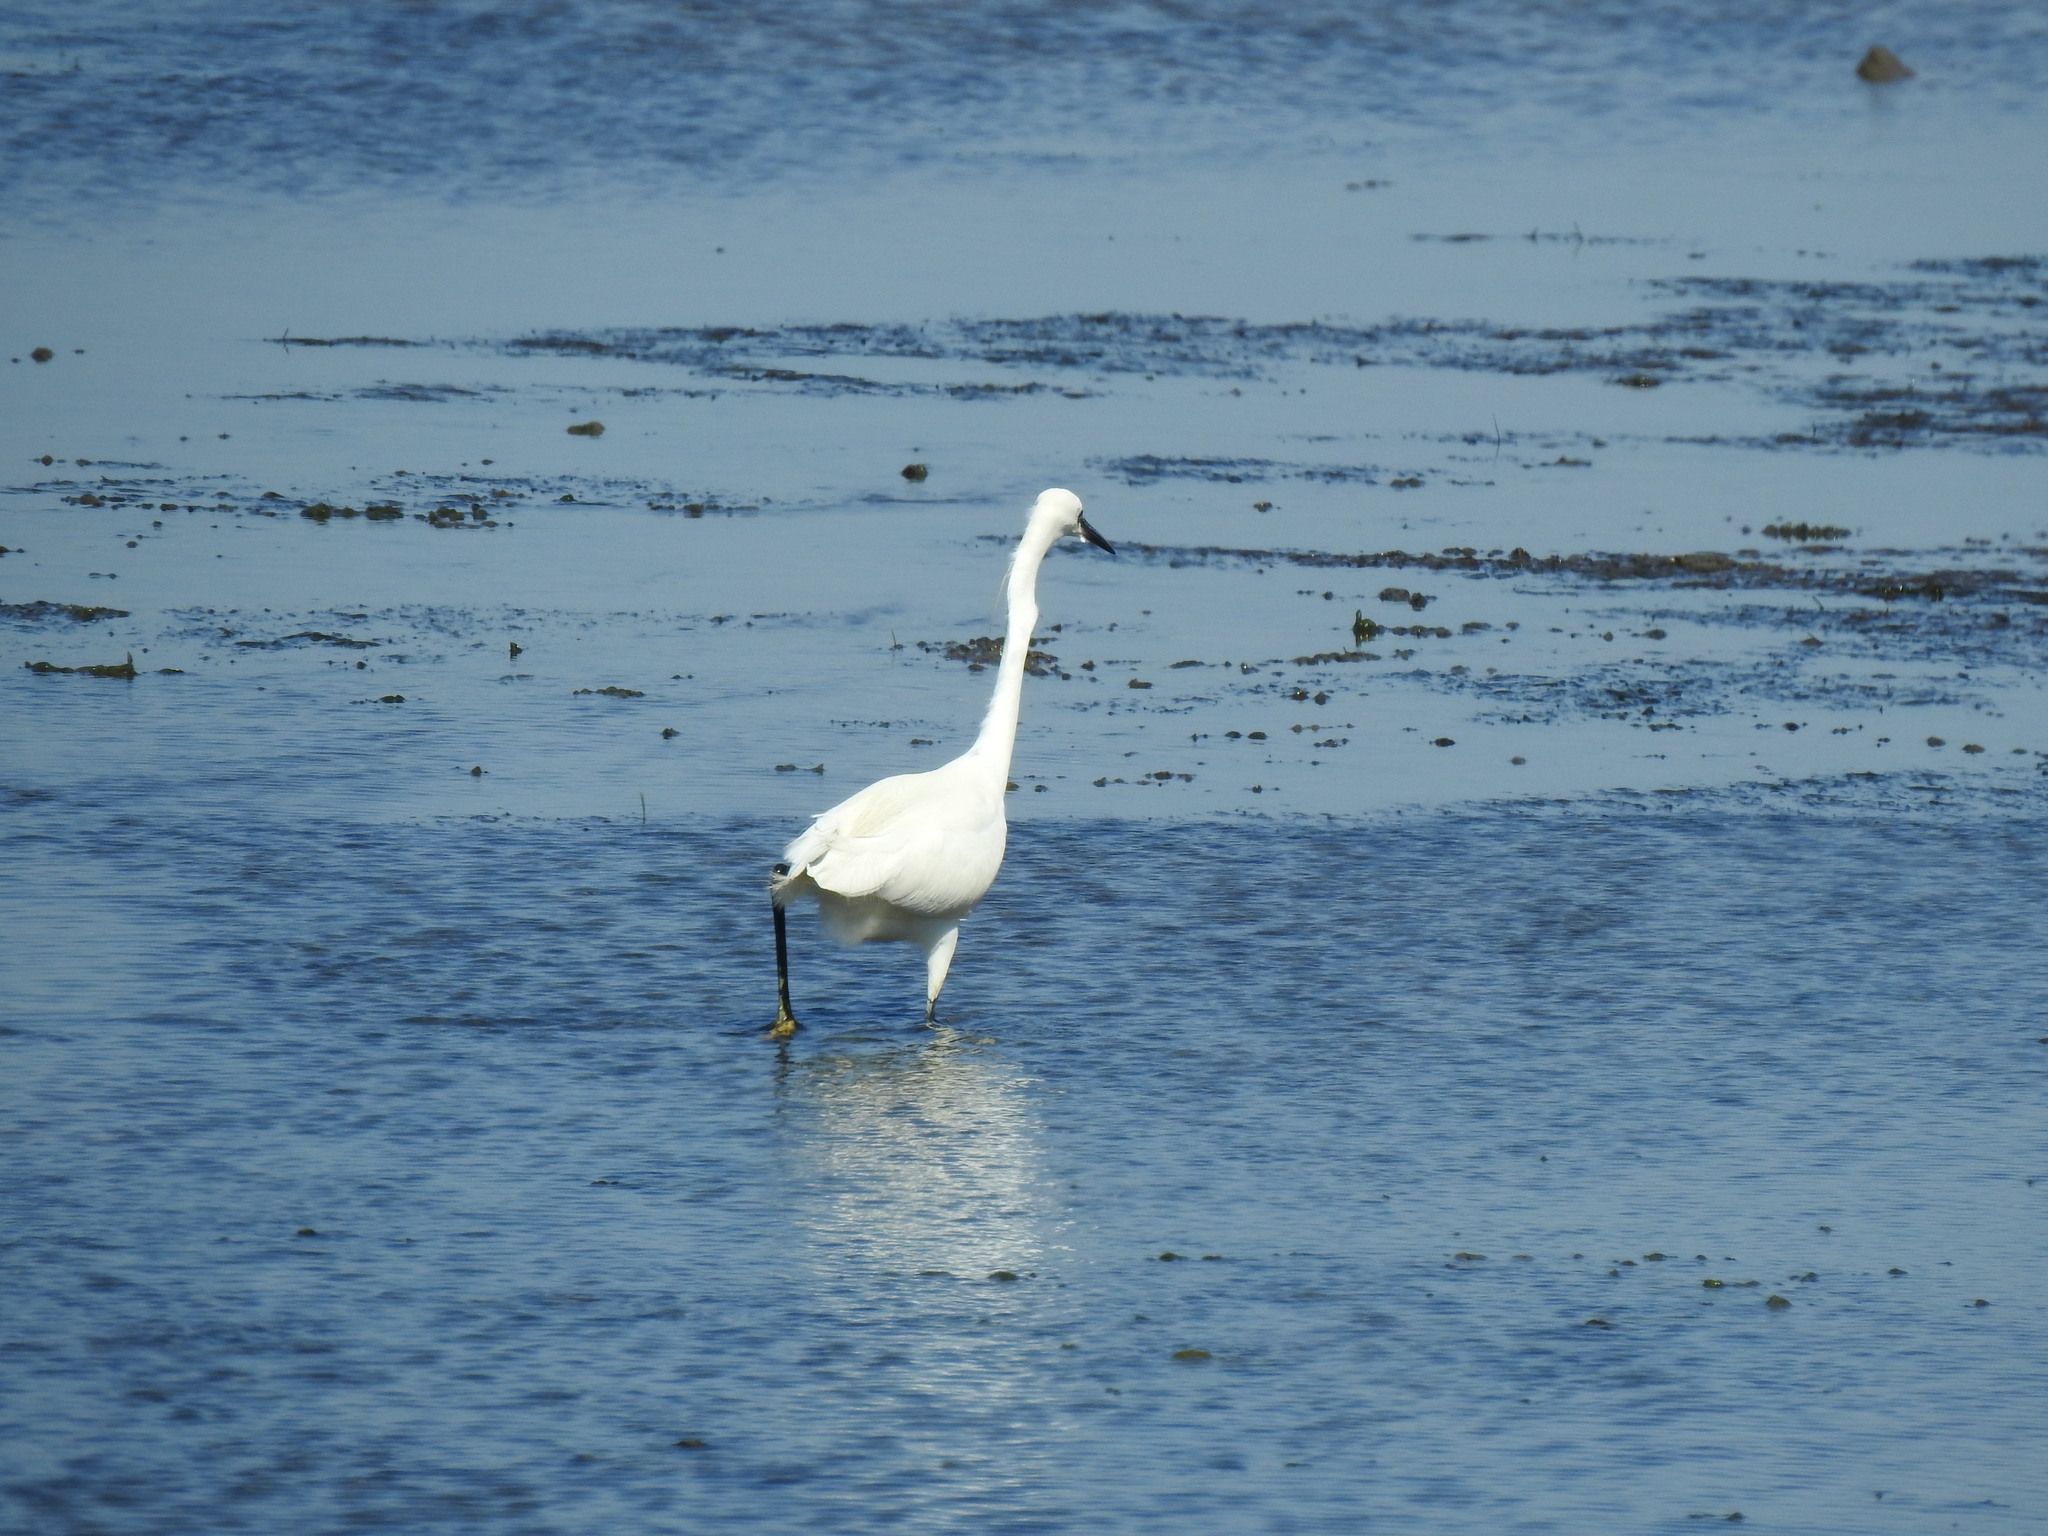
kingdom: Animalia
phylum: Chordata
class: Aves
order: Pelecaniformes
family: Ardeidae
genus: Egretta
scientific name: Egretta garzetta
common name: Little egret
